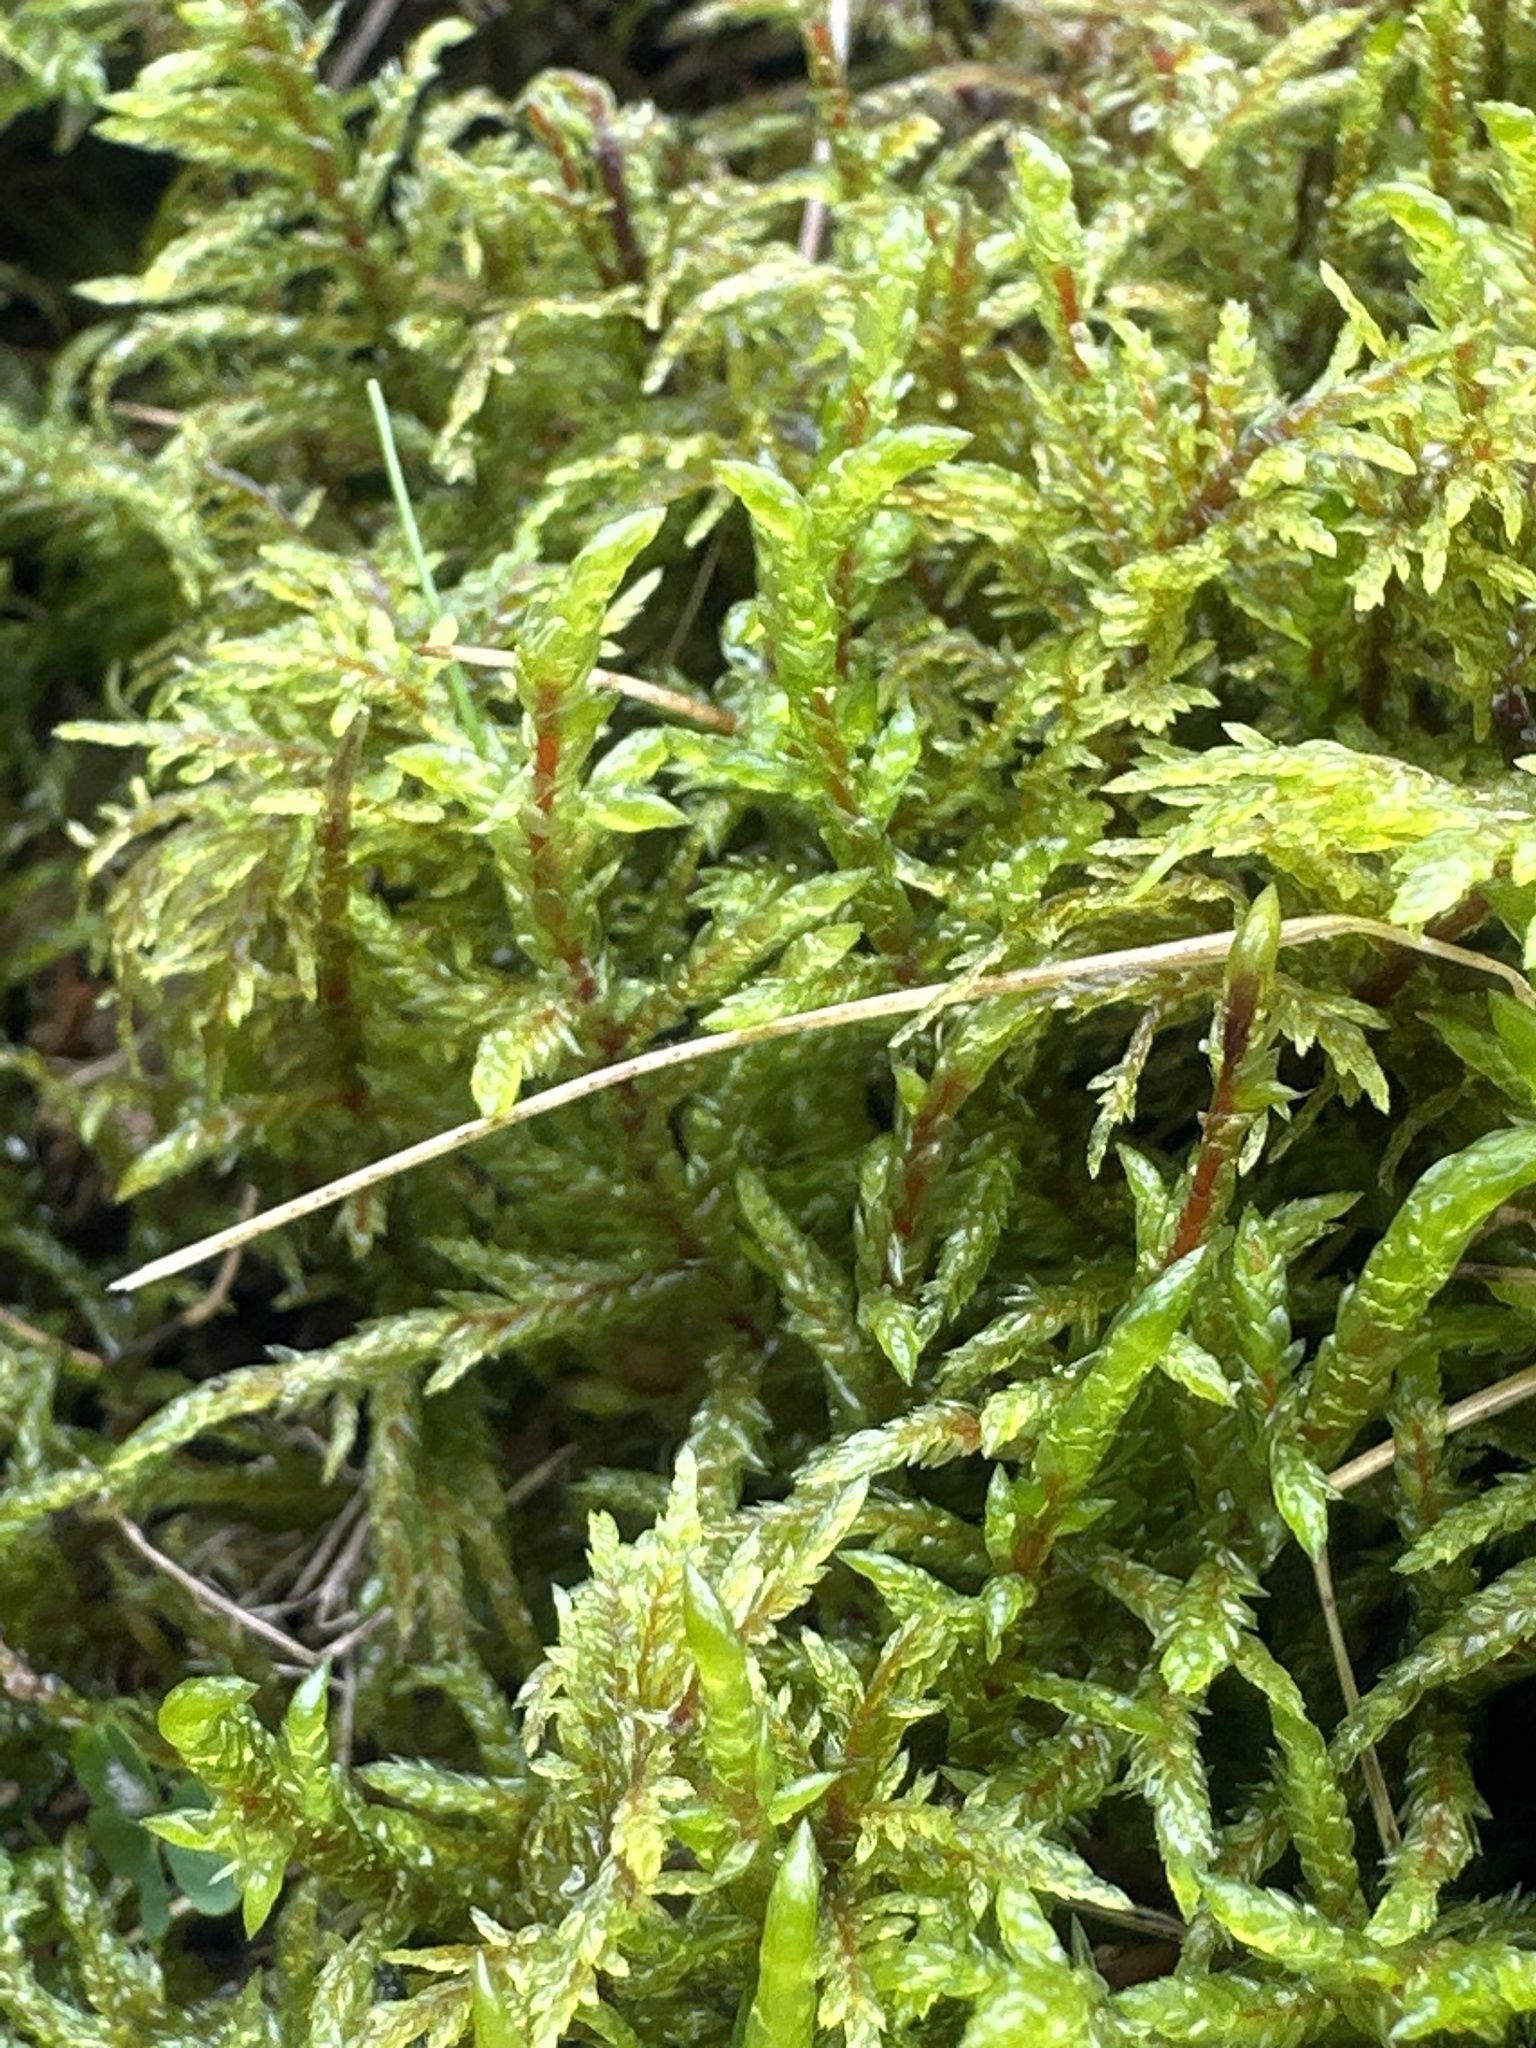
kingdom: Plantae
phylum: Bryophyta
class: Bryopsida
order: Hypnales
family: Hylocomiaceae
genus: Hylocomium
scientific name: Hylocomium splendens
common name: Stairstep moss
